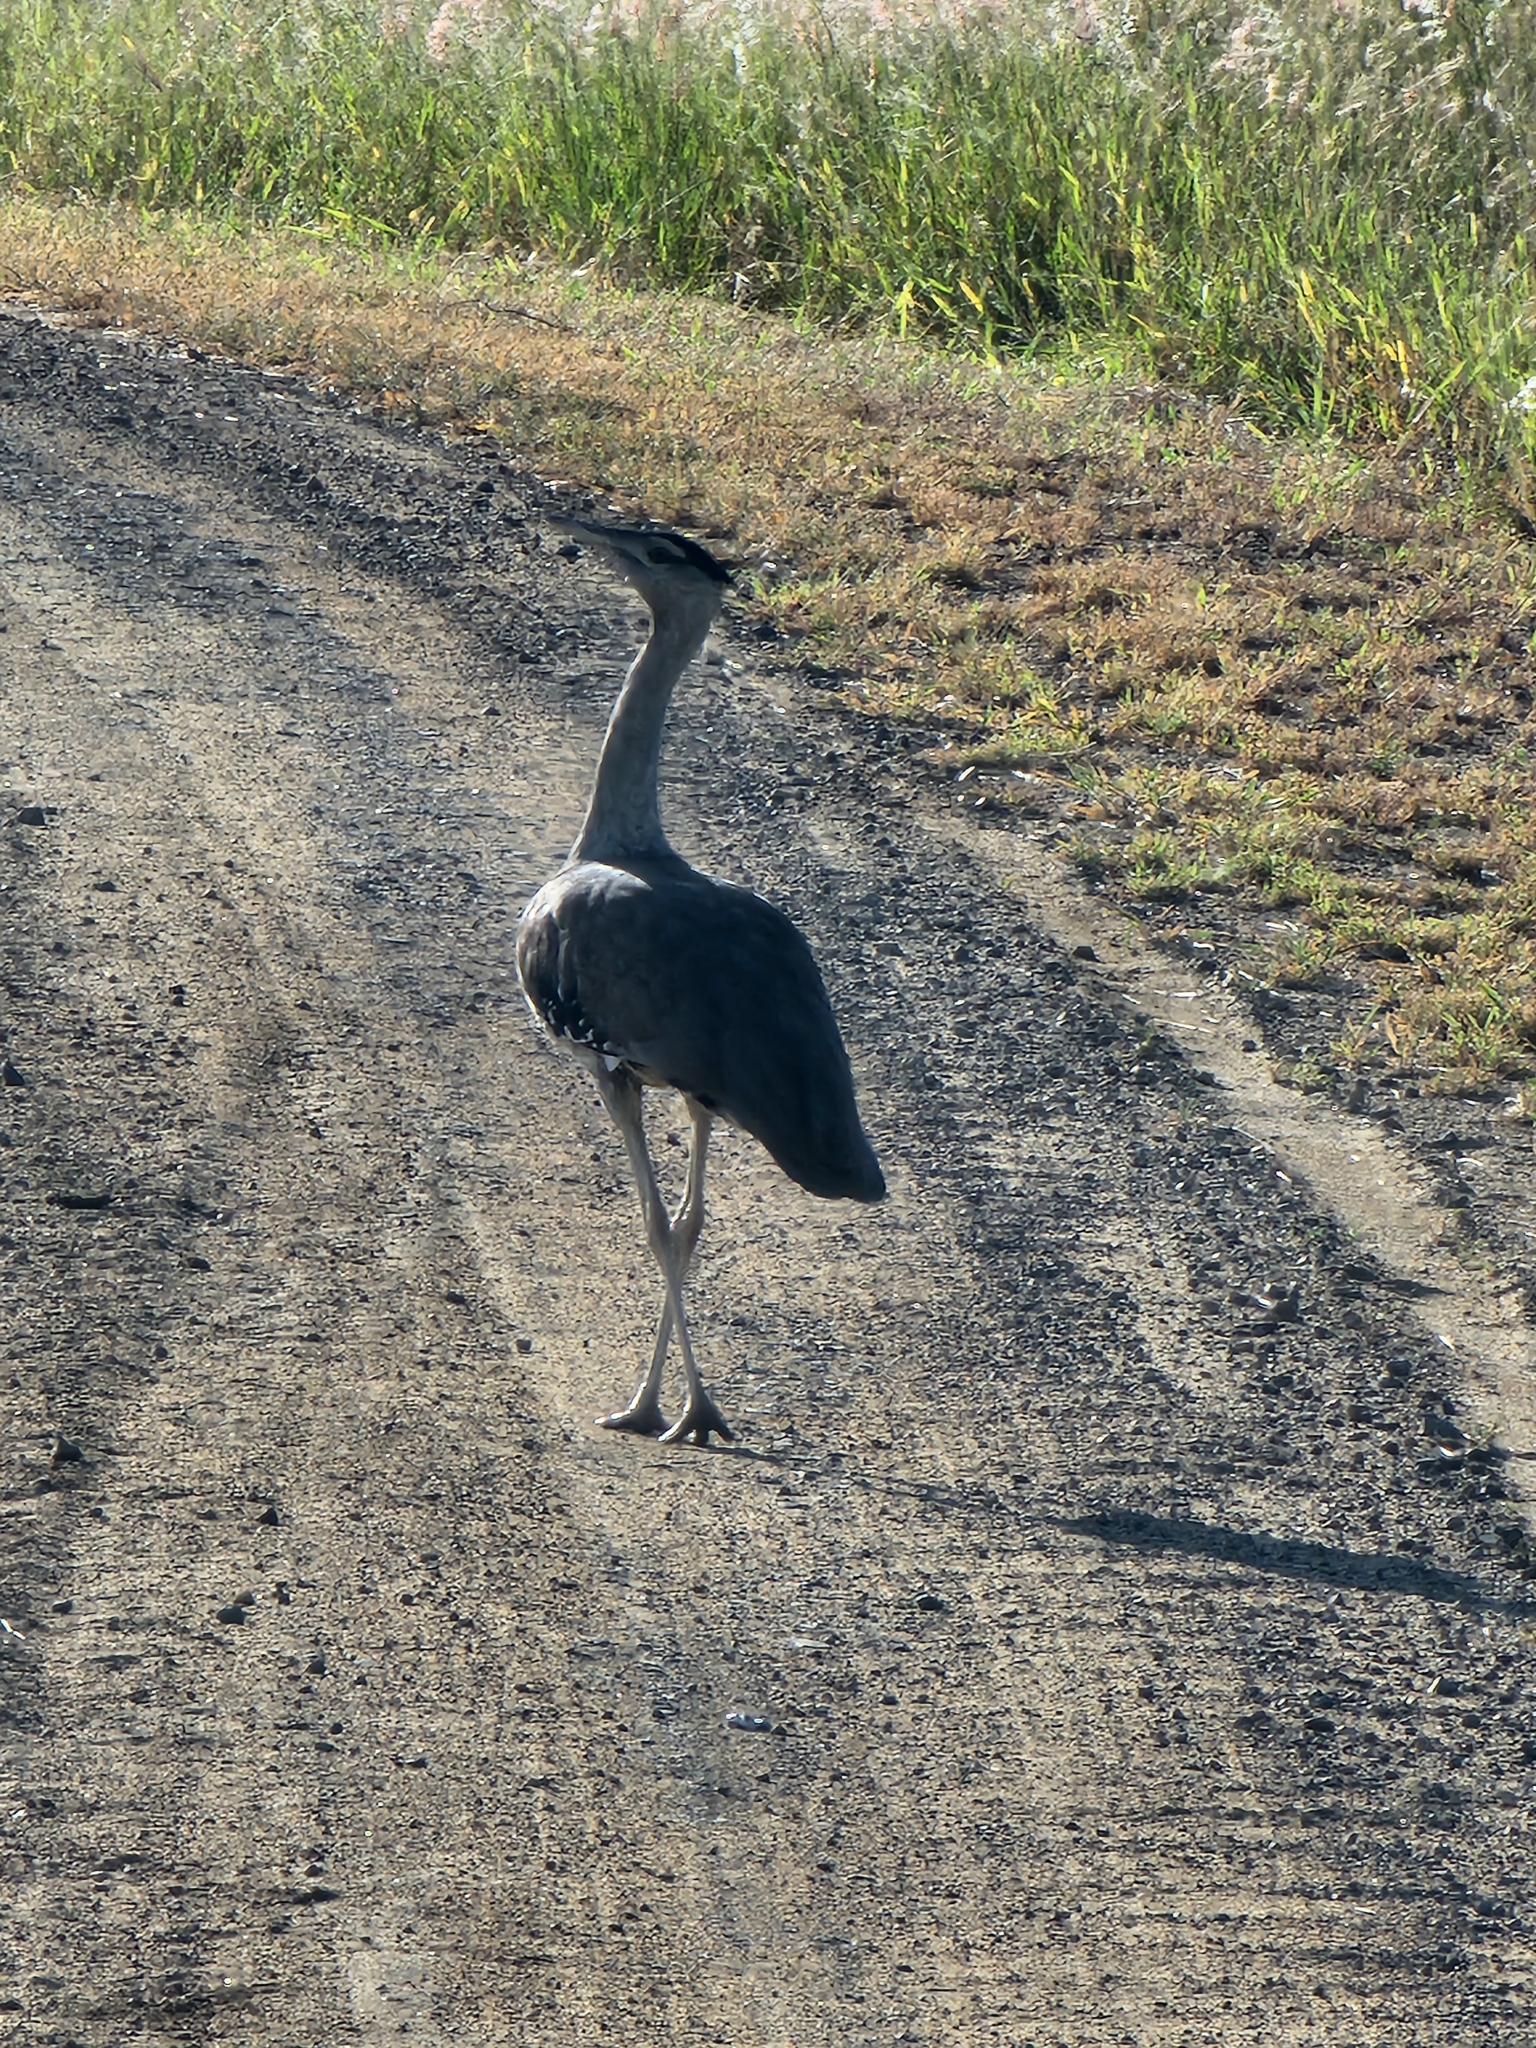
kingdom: Animalia
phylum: Chordata
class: Aves
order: Otidiformes
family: Otididae
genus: Ardeotis
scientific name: Ardeotis australis
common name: Australian bustard
